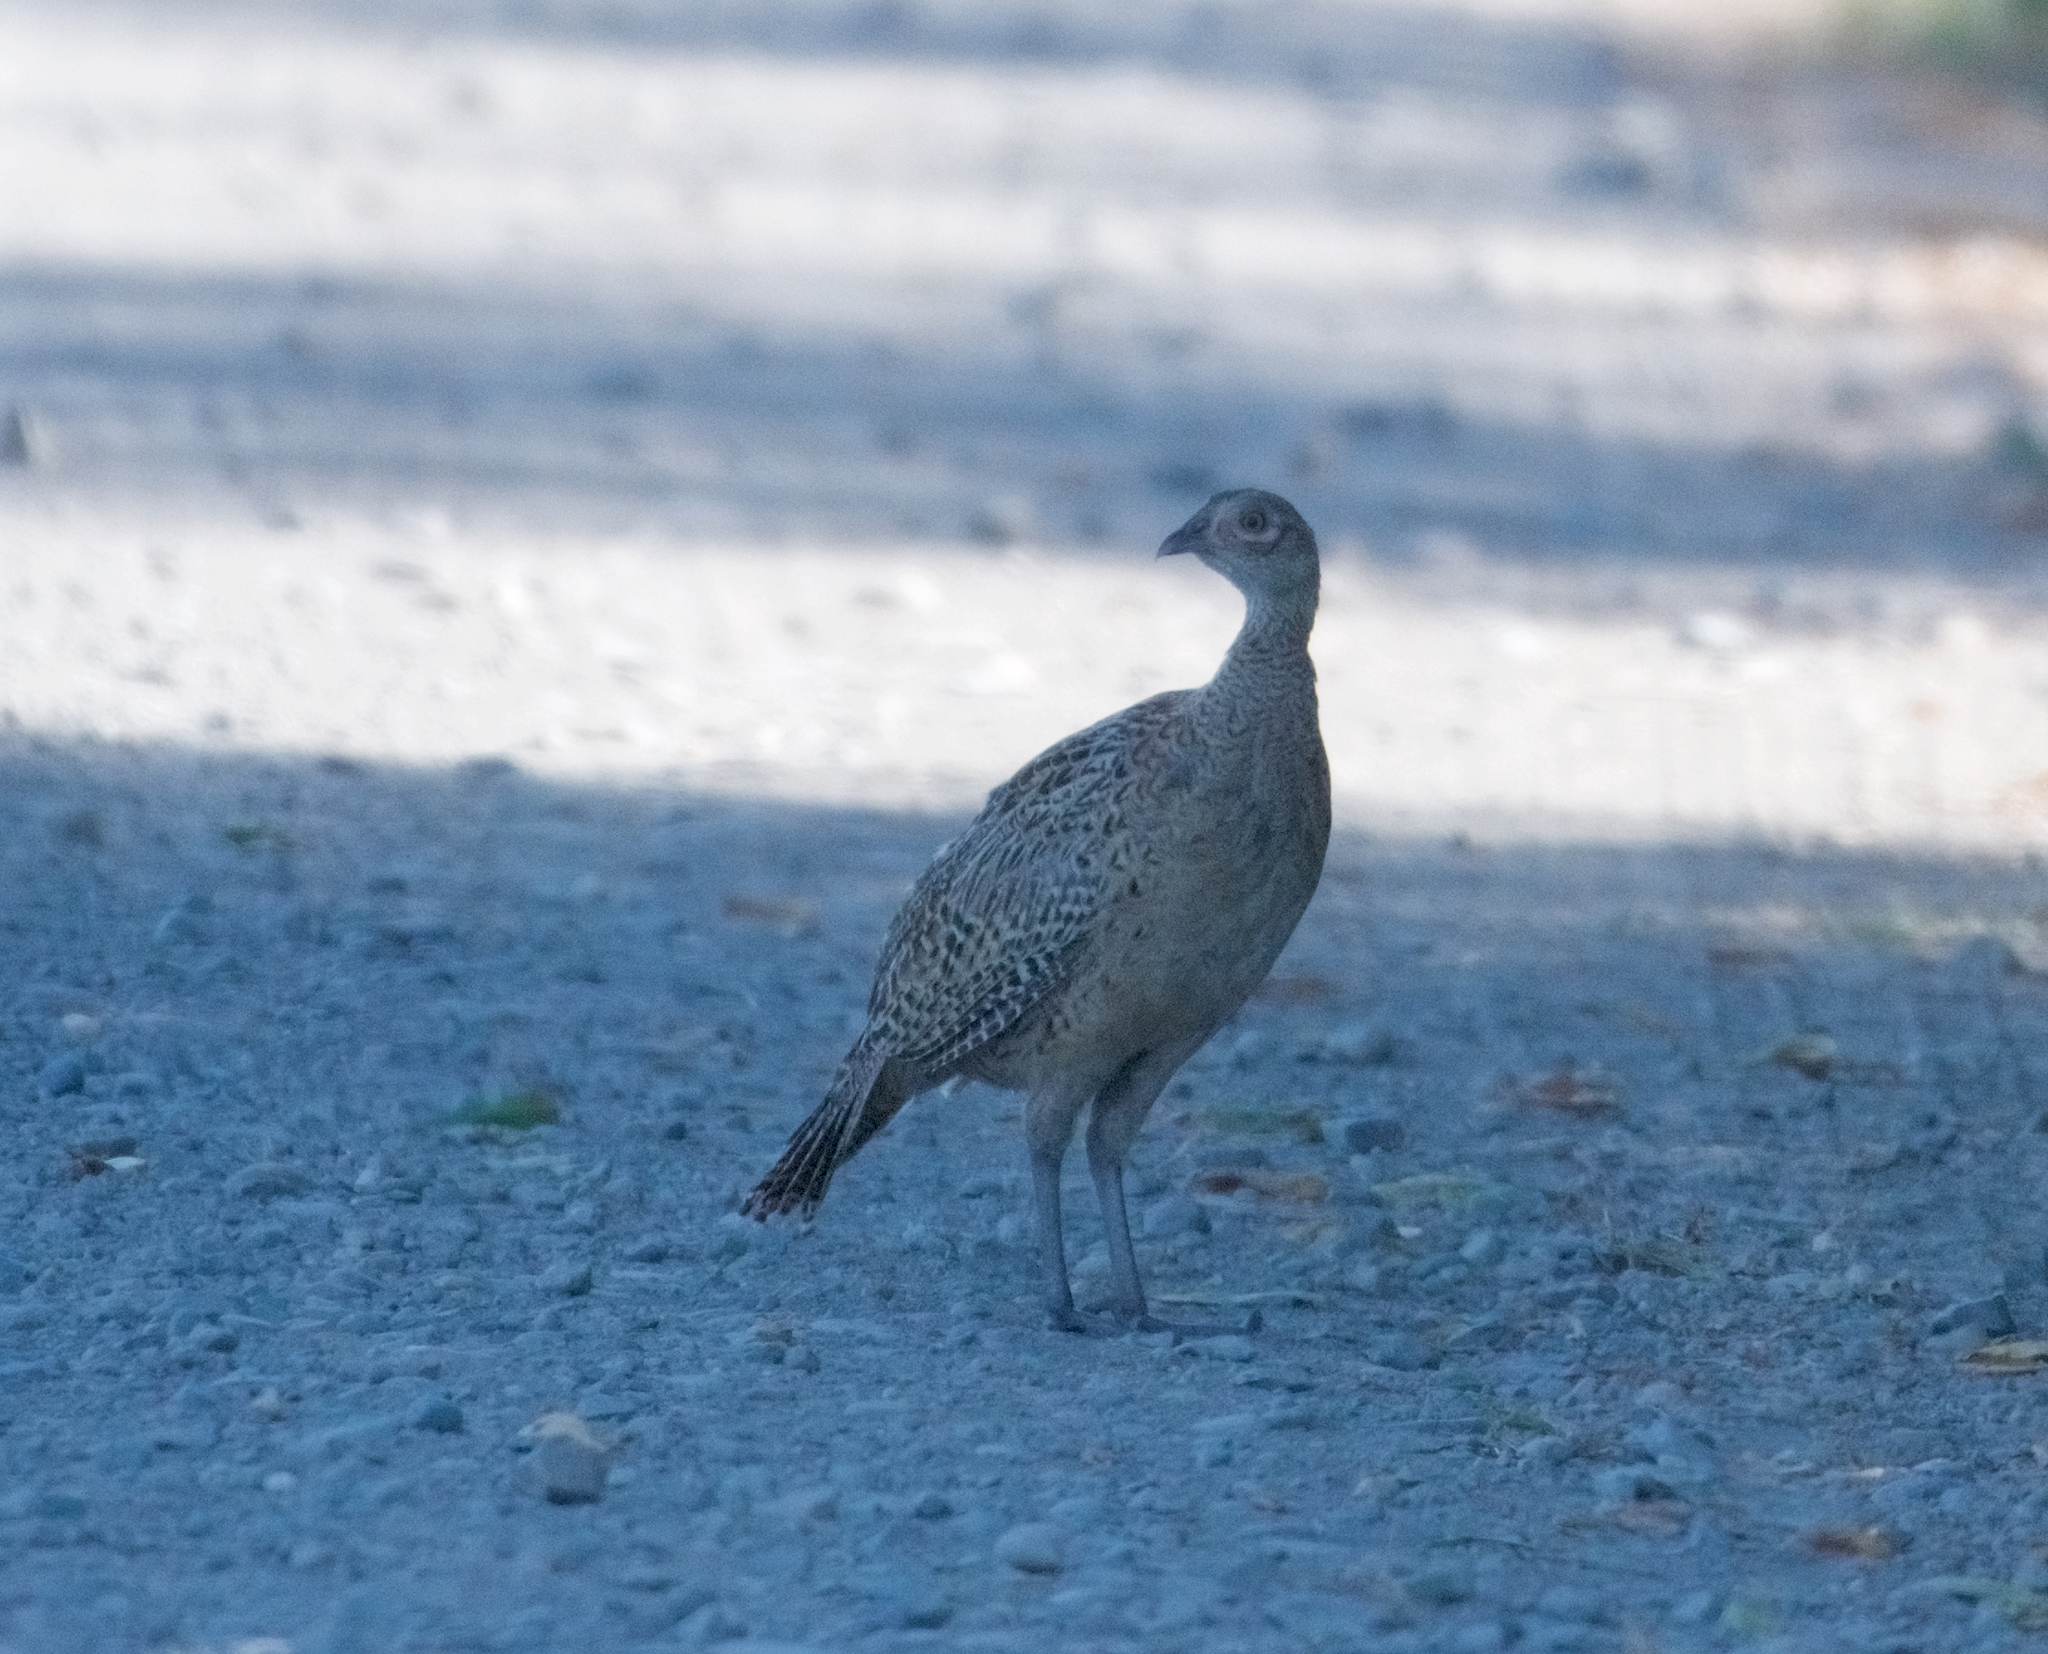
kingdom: Animalia
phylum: Chordata
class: Aves
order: Galliformes
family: Phasianidae
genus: Phasianus
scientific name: Phasianus colchicus
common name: Common pheasant
